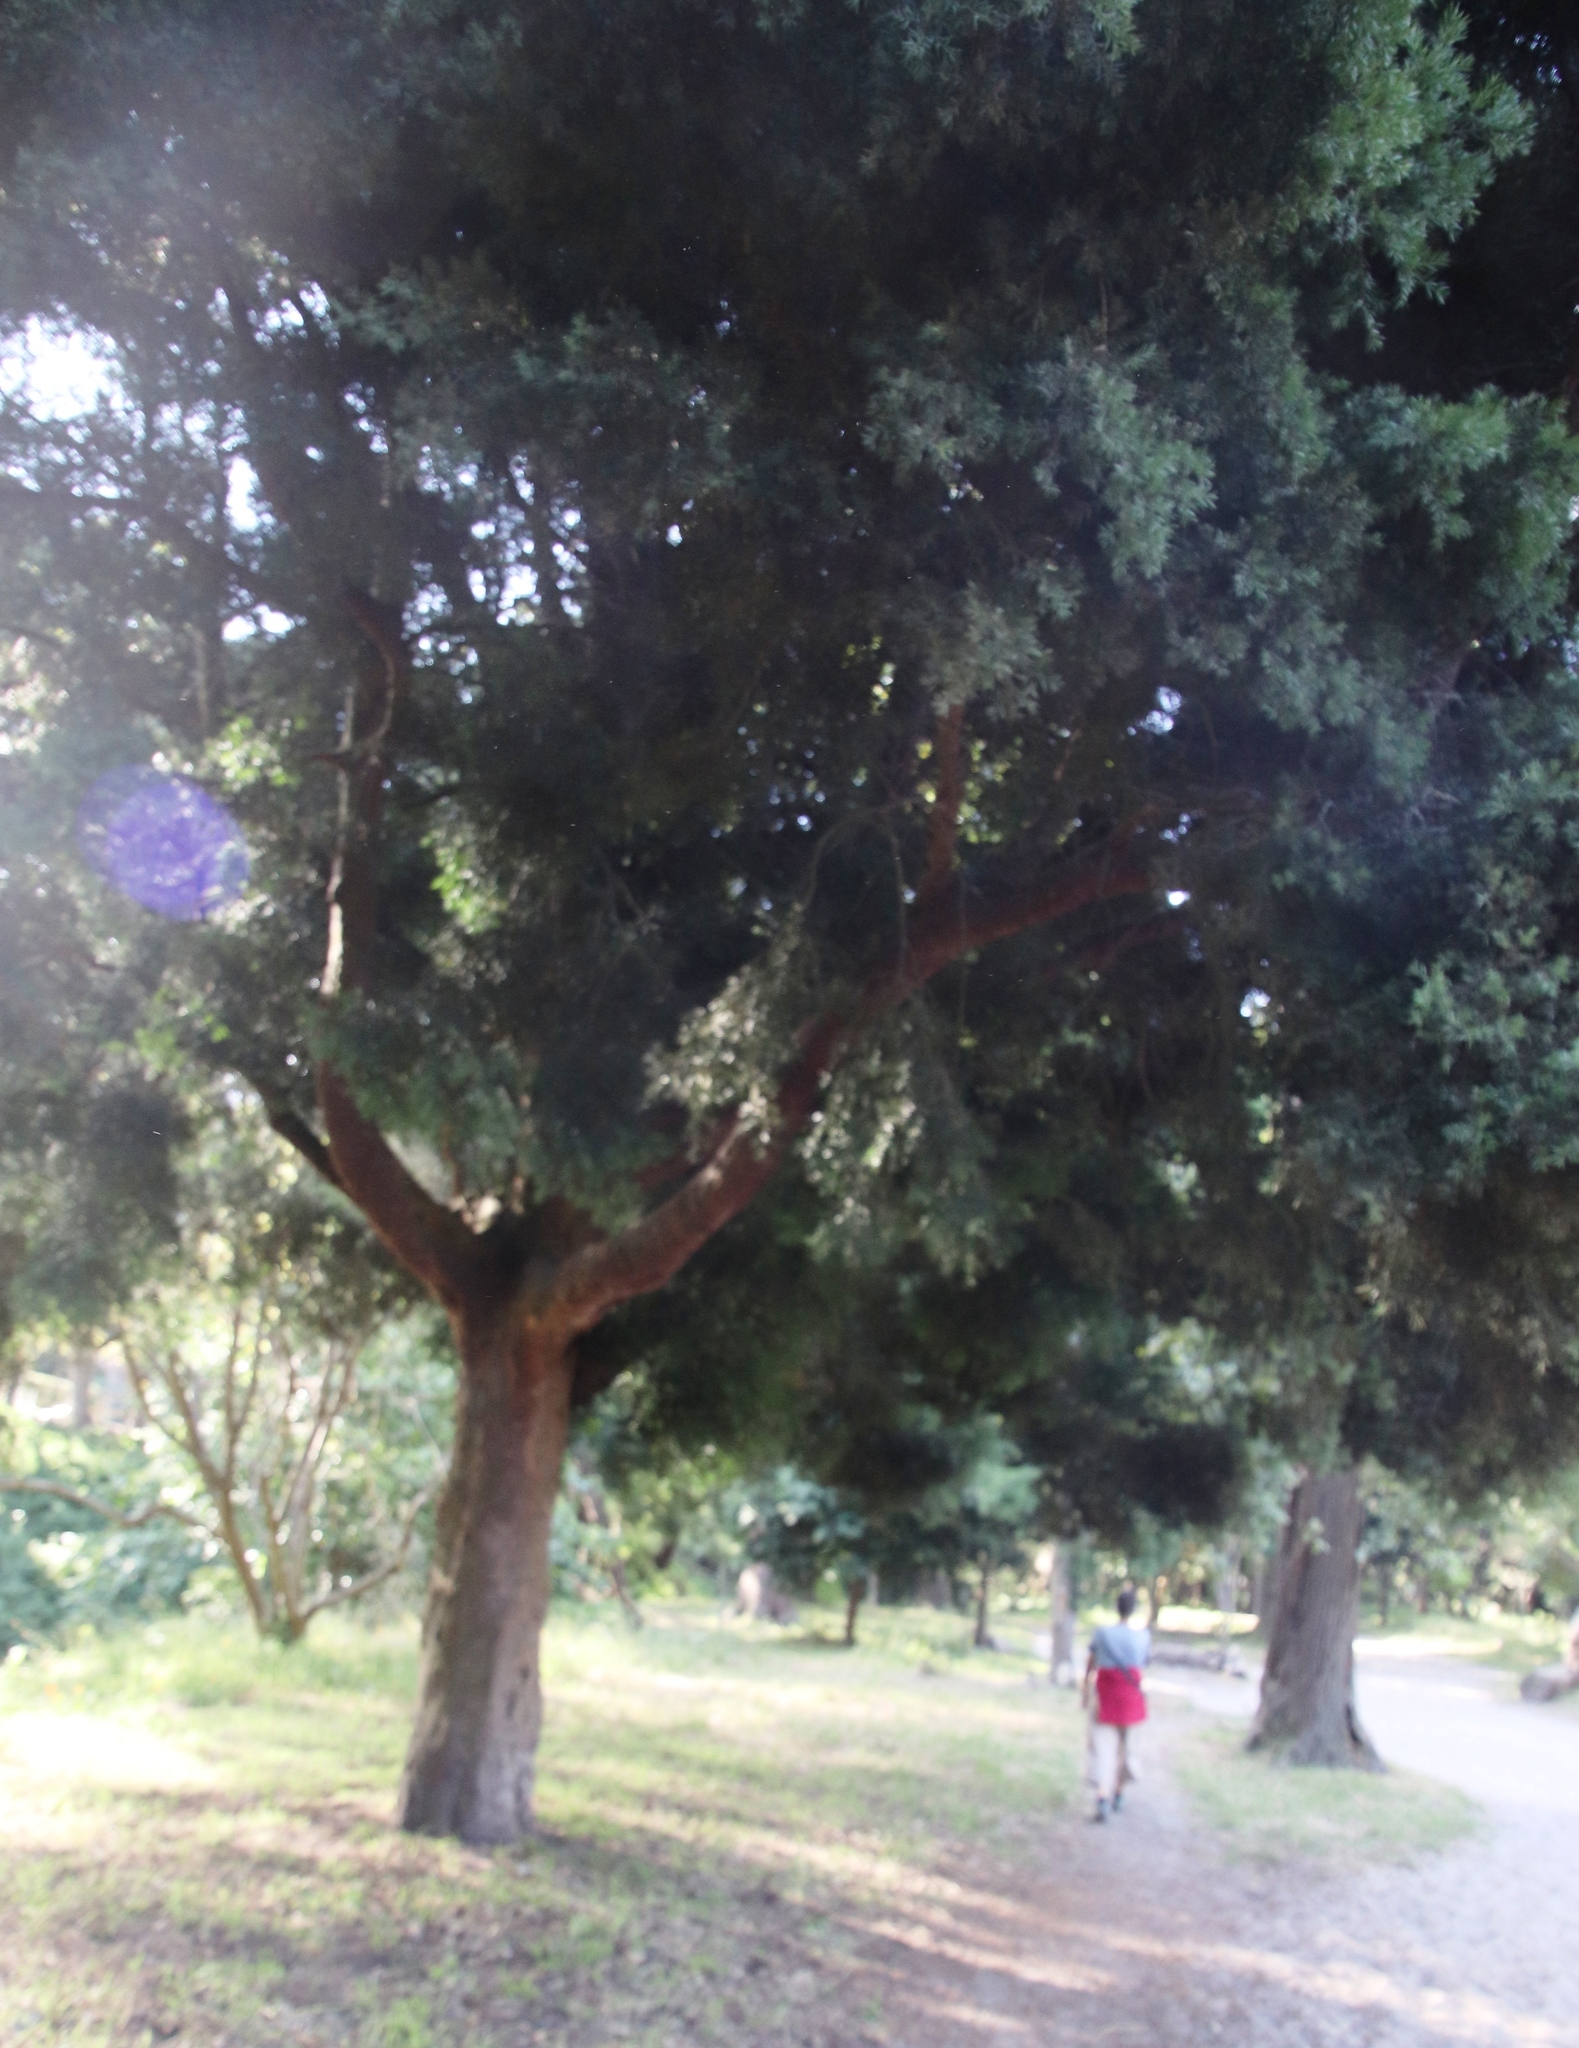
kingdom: Plantae
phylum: Tracheophyta
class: Pinopsida
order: Pinales
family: Podocarpaceae
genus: Afrocarpus
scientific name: Afrocarpus falcatus
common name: Bastard yellowwood
